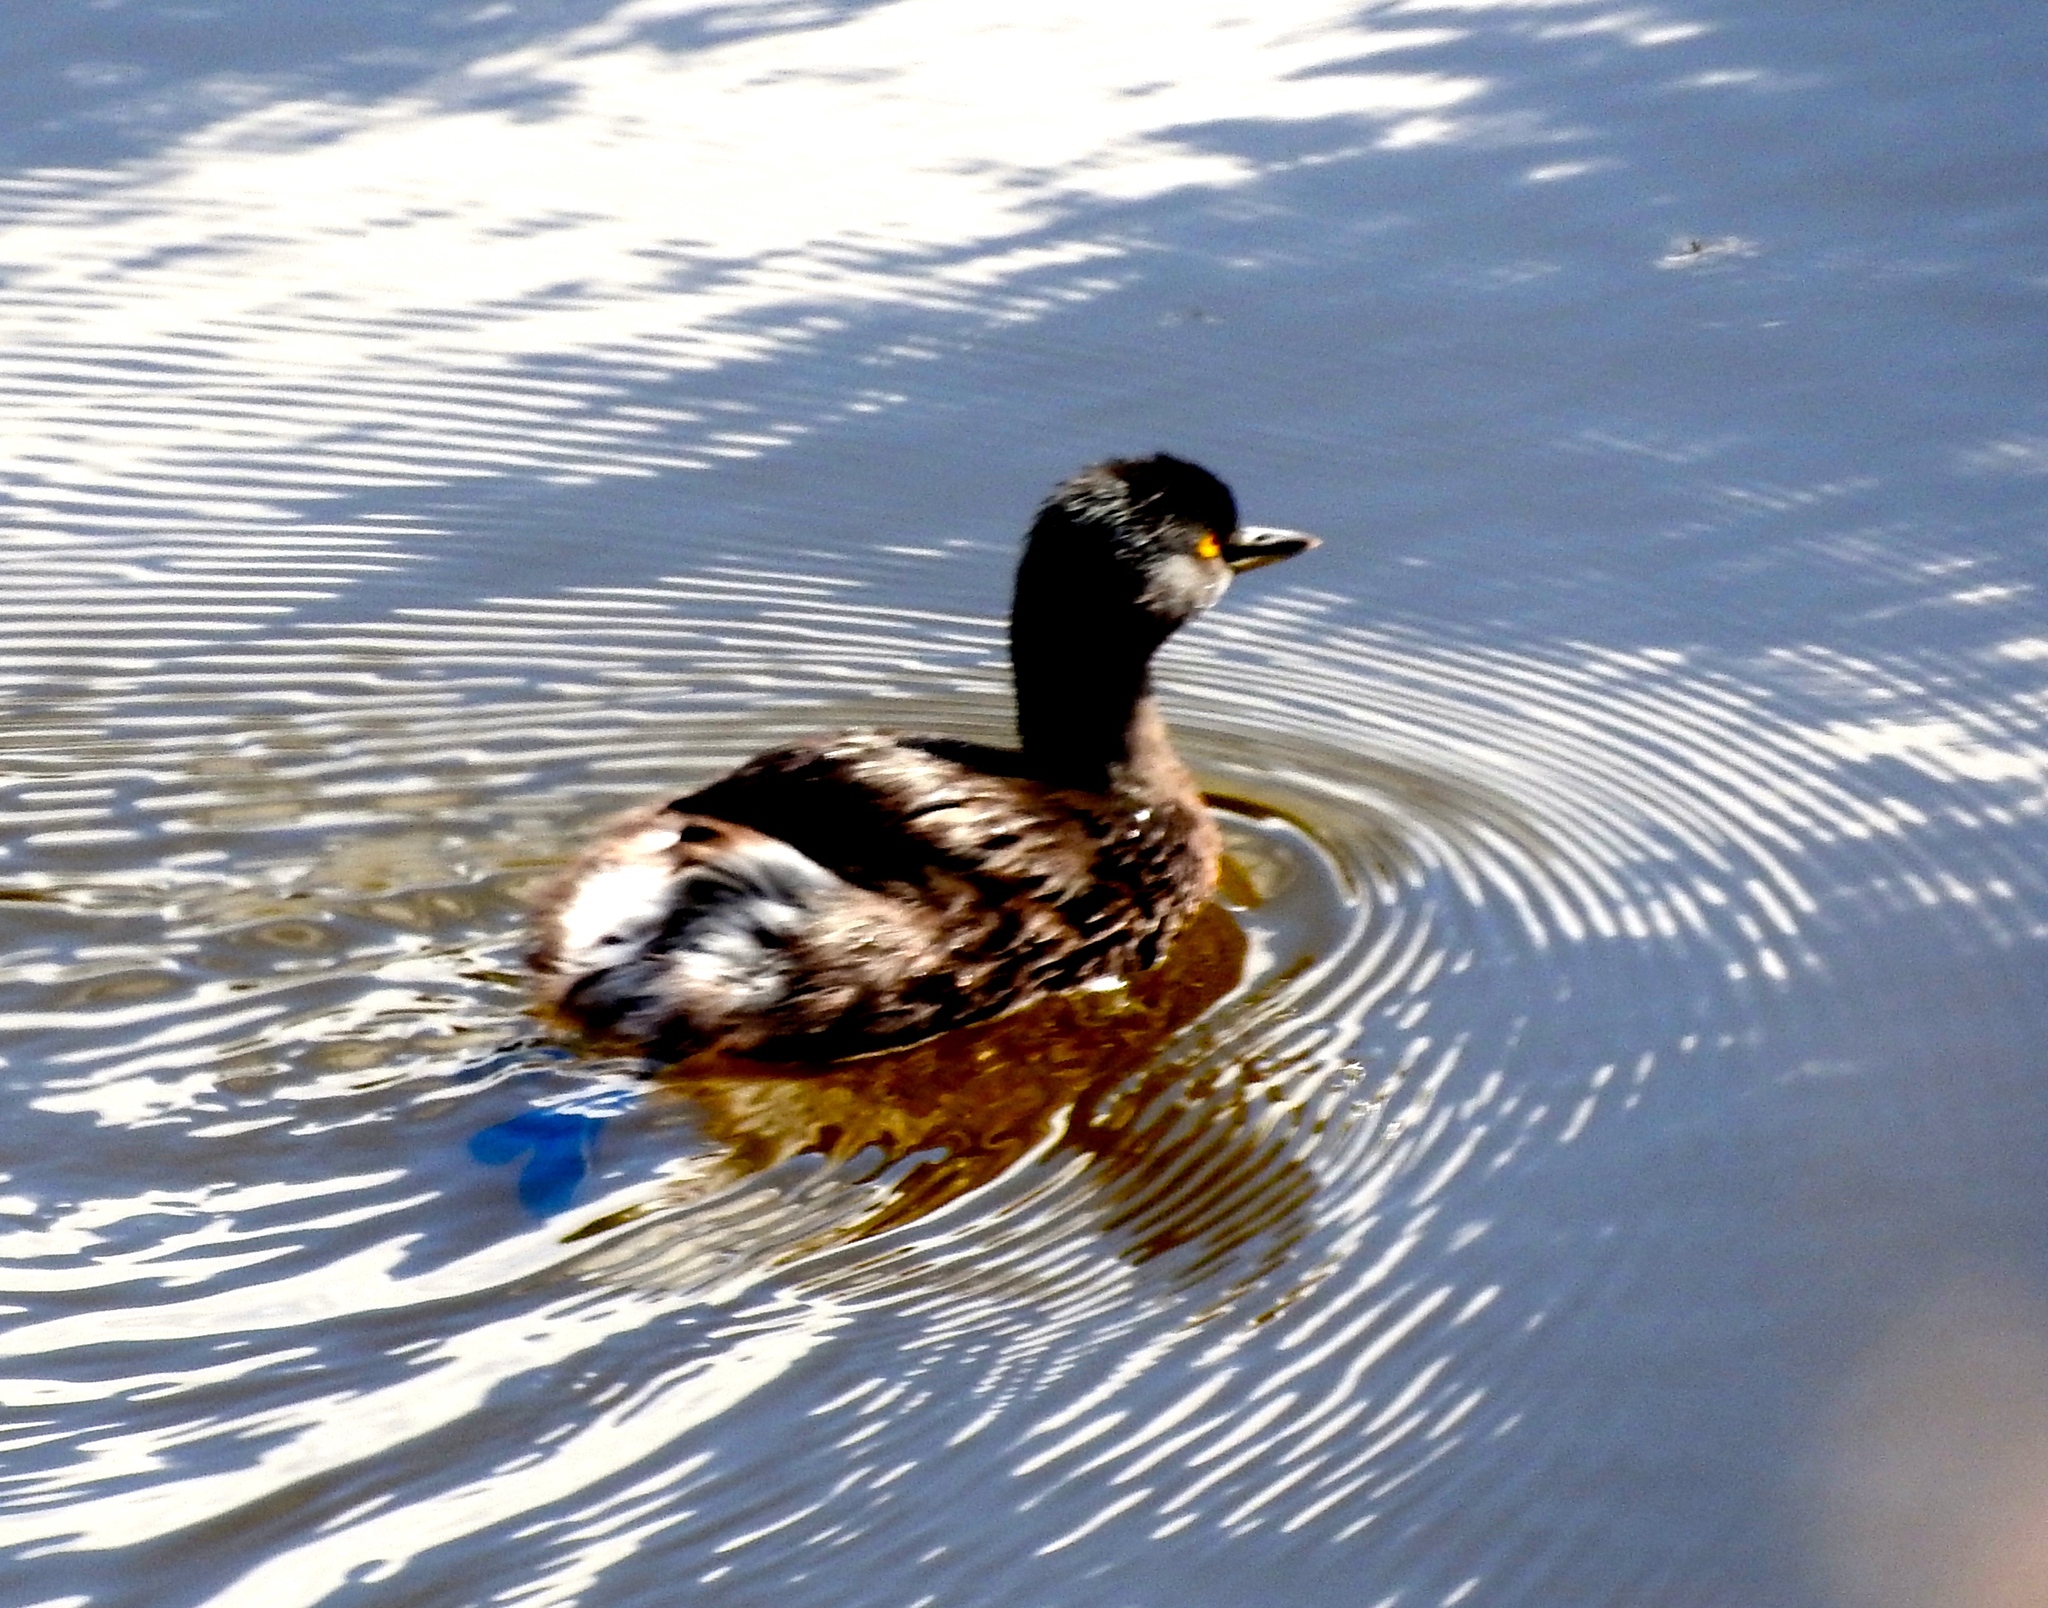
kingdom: Animalia
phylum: Chordata
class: Aves
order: Podicipediformes
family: Podicipedidae
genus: Tachybaptus
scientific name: Tachybaptus dominicus
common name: Least grebe
